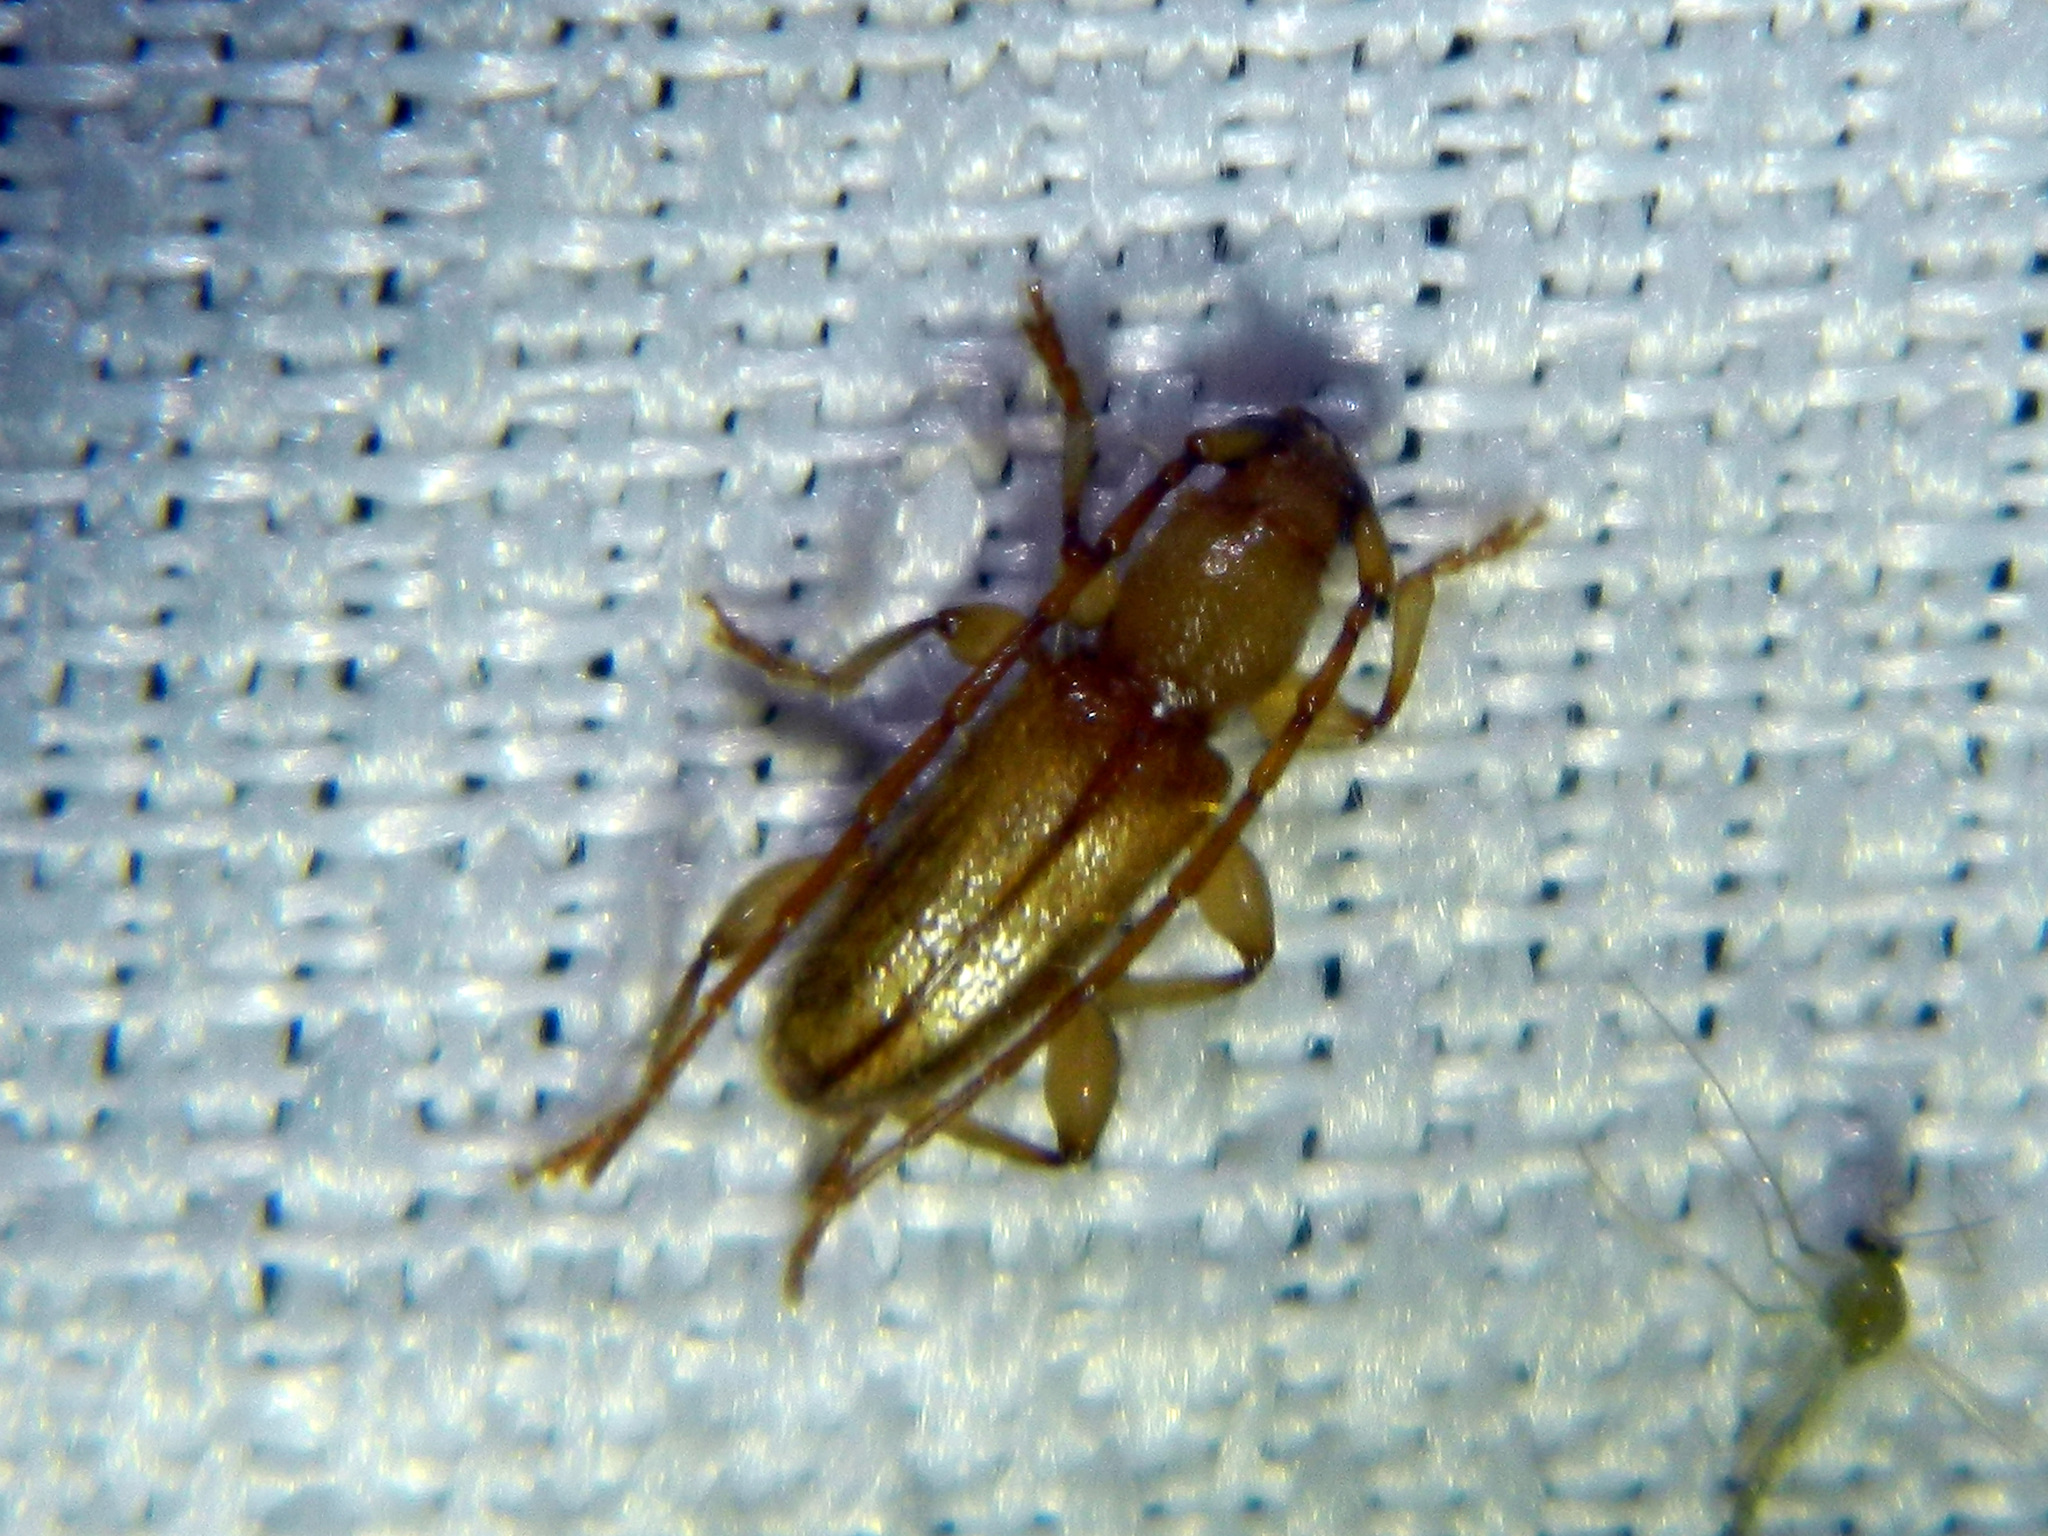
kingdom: Animalia
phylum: Arthropoda
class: Insecta
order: Coleoptera
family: Cerambycidae
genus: Curtomerus
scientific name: Curtomerus flavus
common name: Curtomerus long-horned beetle
